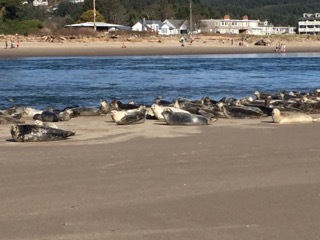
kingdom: Animalia
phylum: Chordata
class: Mammalia
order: Carnivora
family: Phocidae
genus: Phoca
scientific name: Phoca vitulina
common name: Harbor seal
